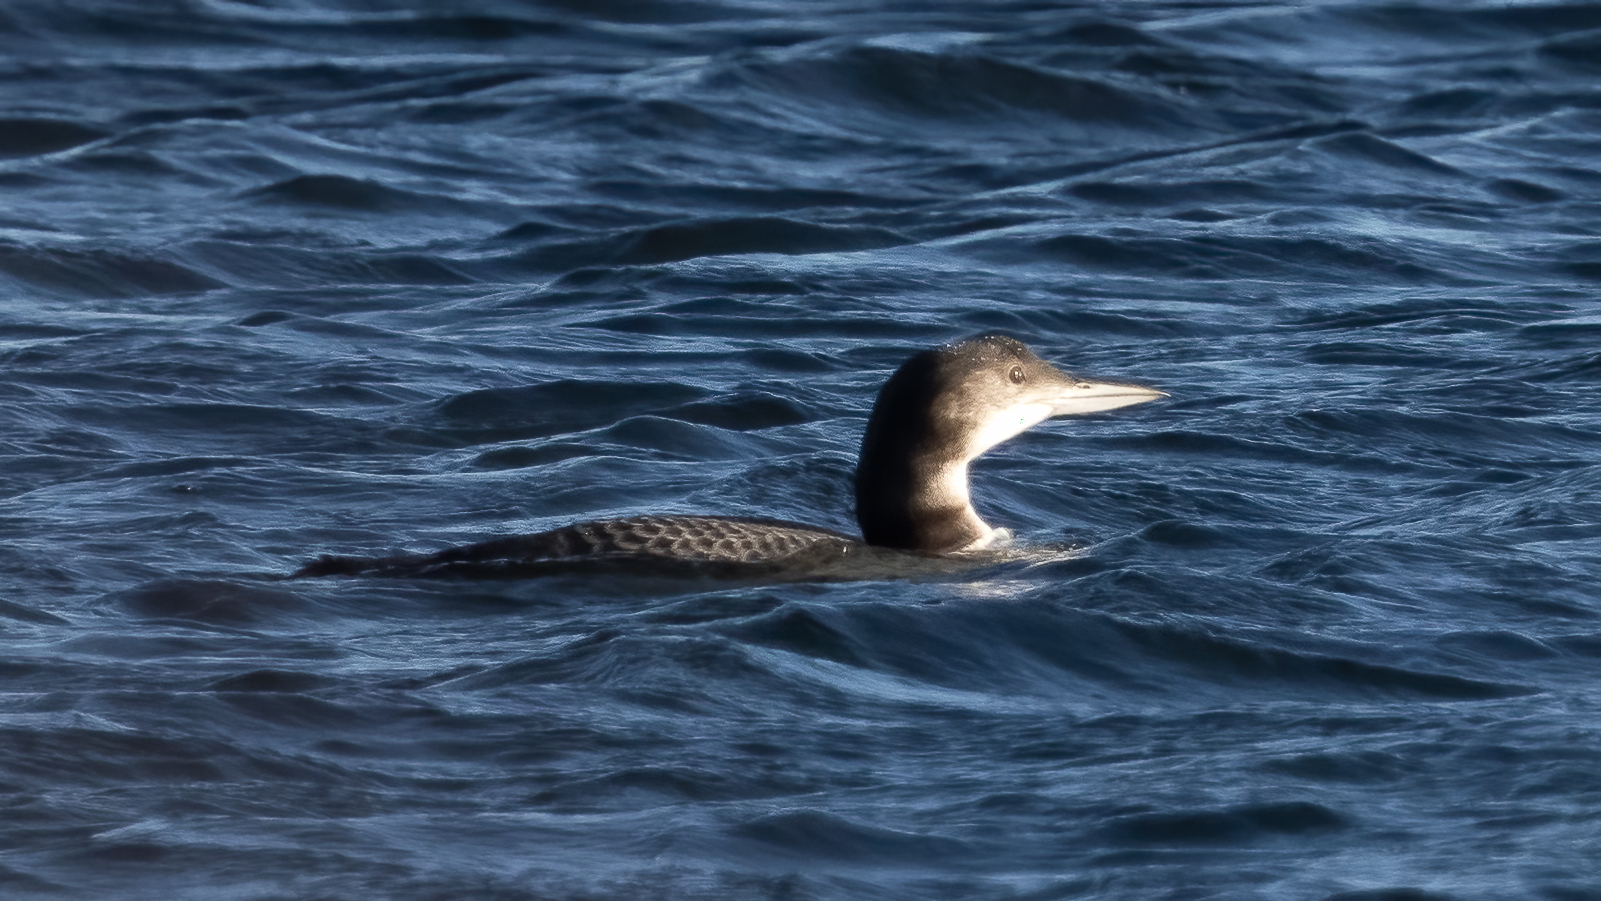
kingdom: Animalia
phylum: Chordata
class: Aves
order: Gaviiformes
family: Gaviidae
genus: Gavia
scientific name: Gavia immer
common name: Common loon
